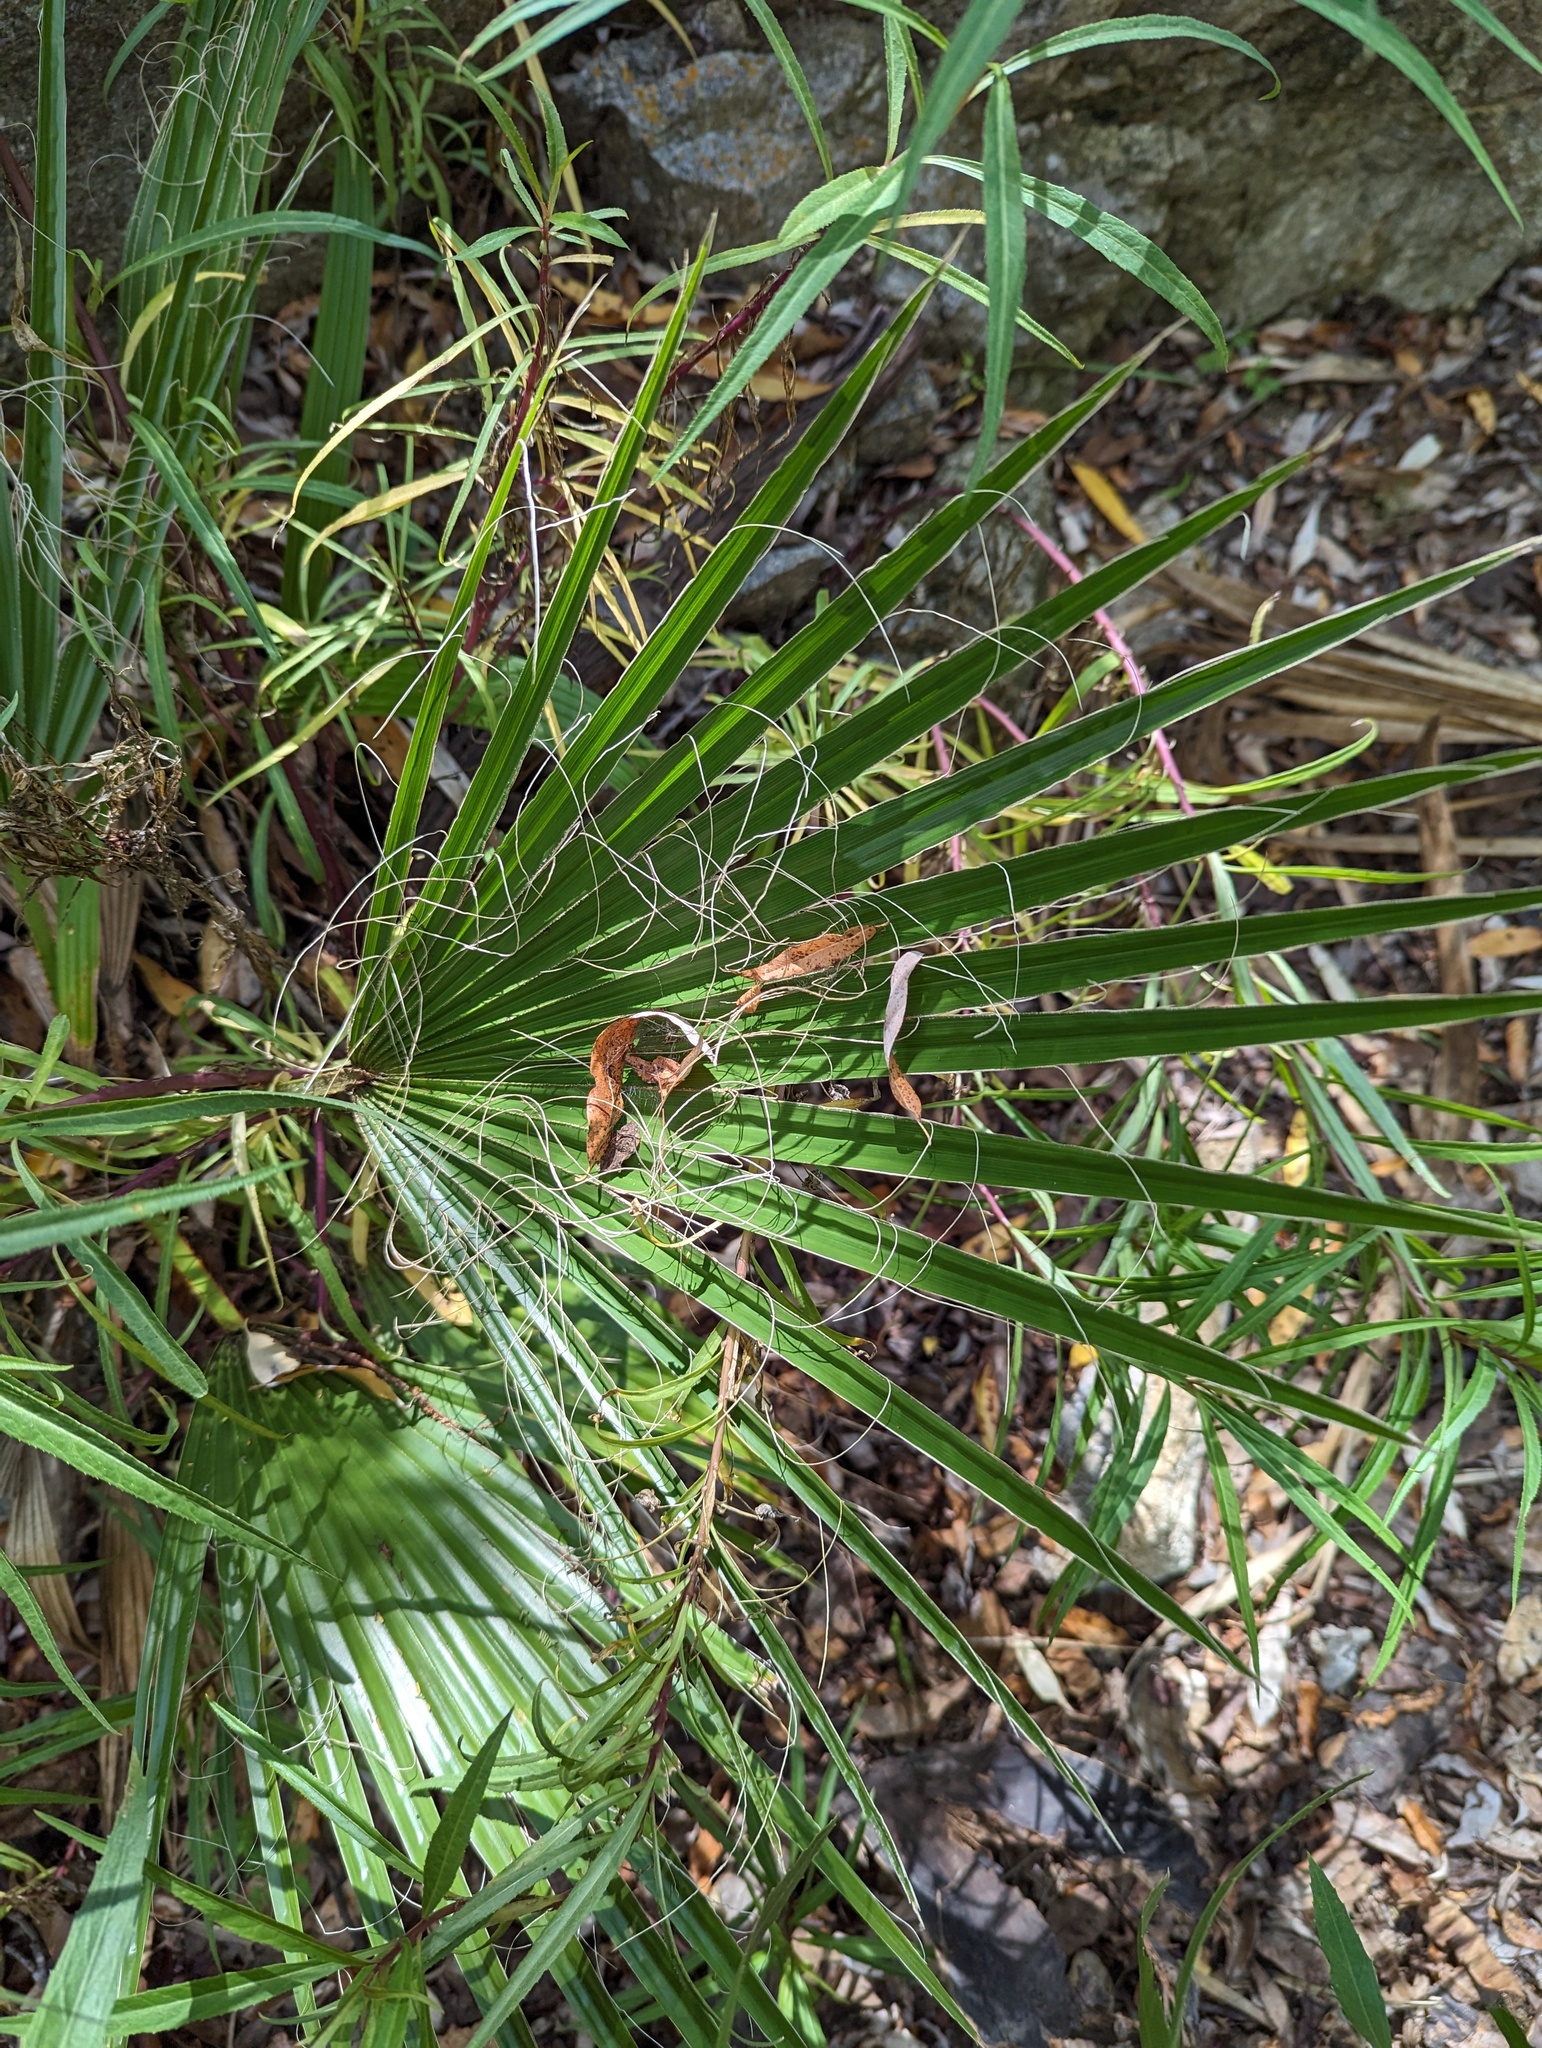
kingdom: Plantae
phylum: Tracheophyta
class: Liliopsida
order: Arecales
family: Arecaceae
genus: Washingtonia
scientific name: Washingtonia robusta
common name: Mexican fan palm
